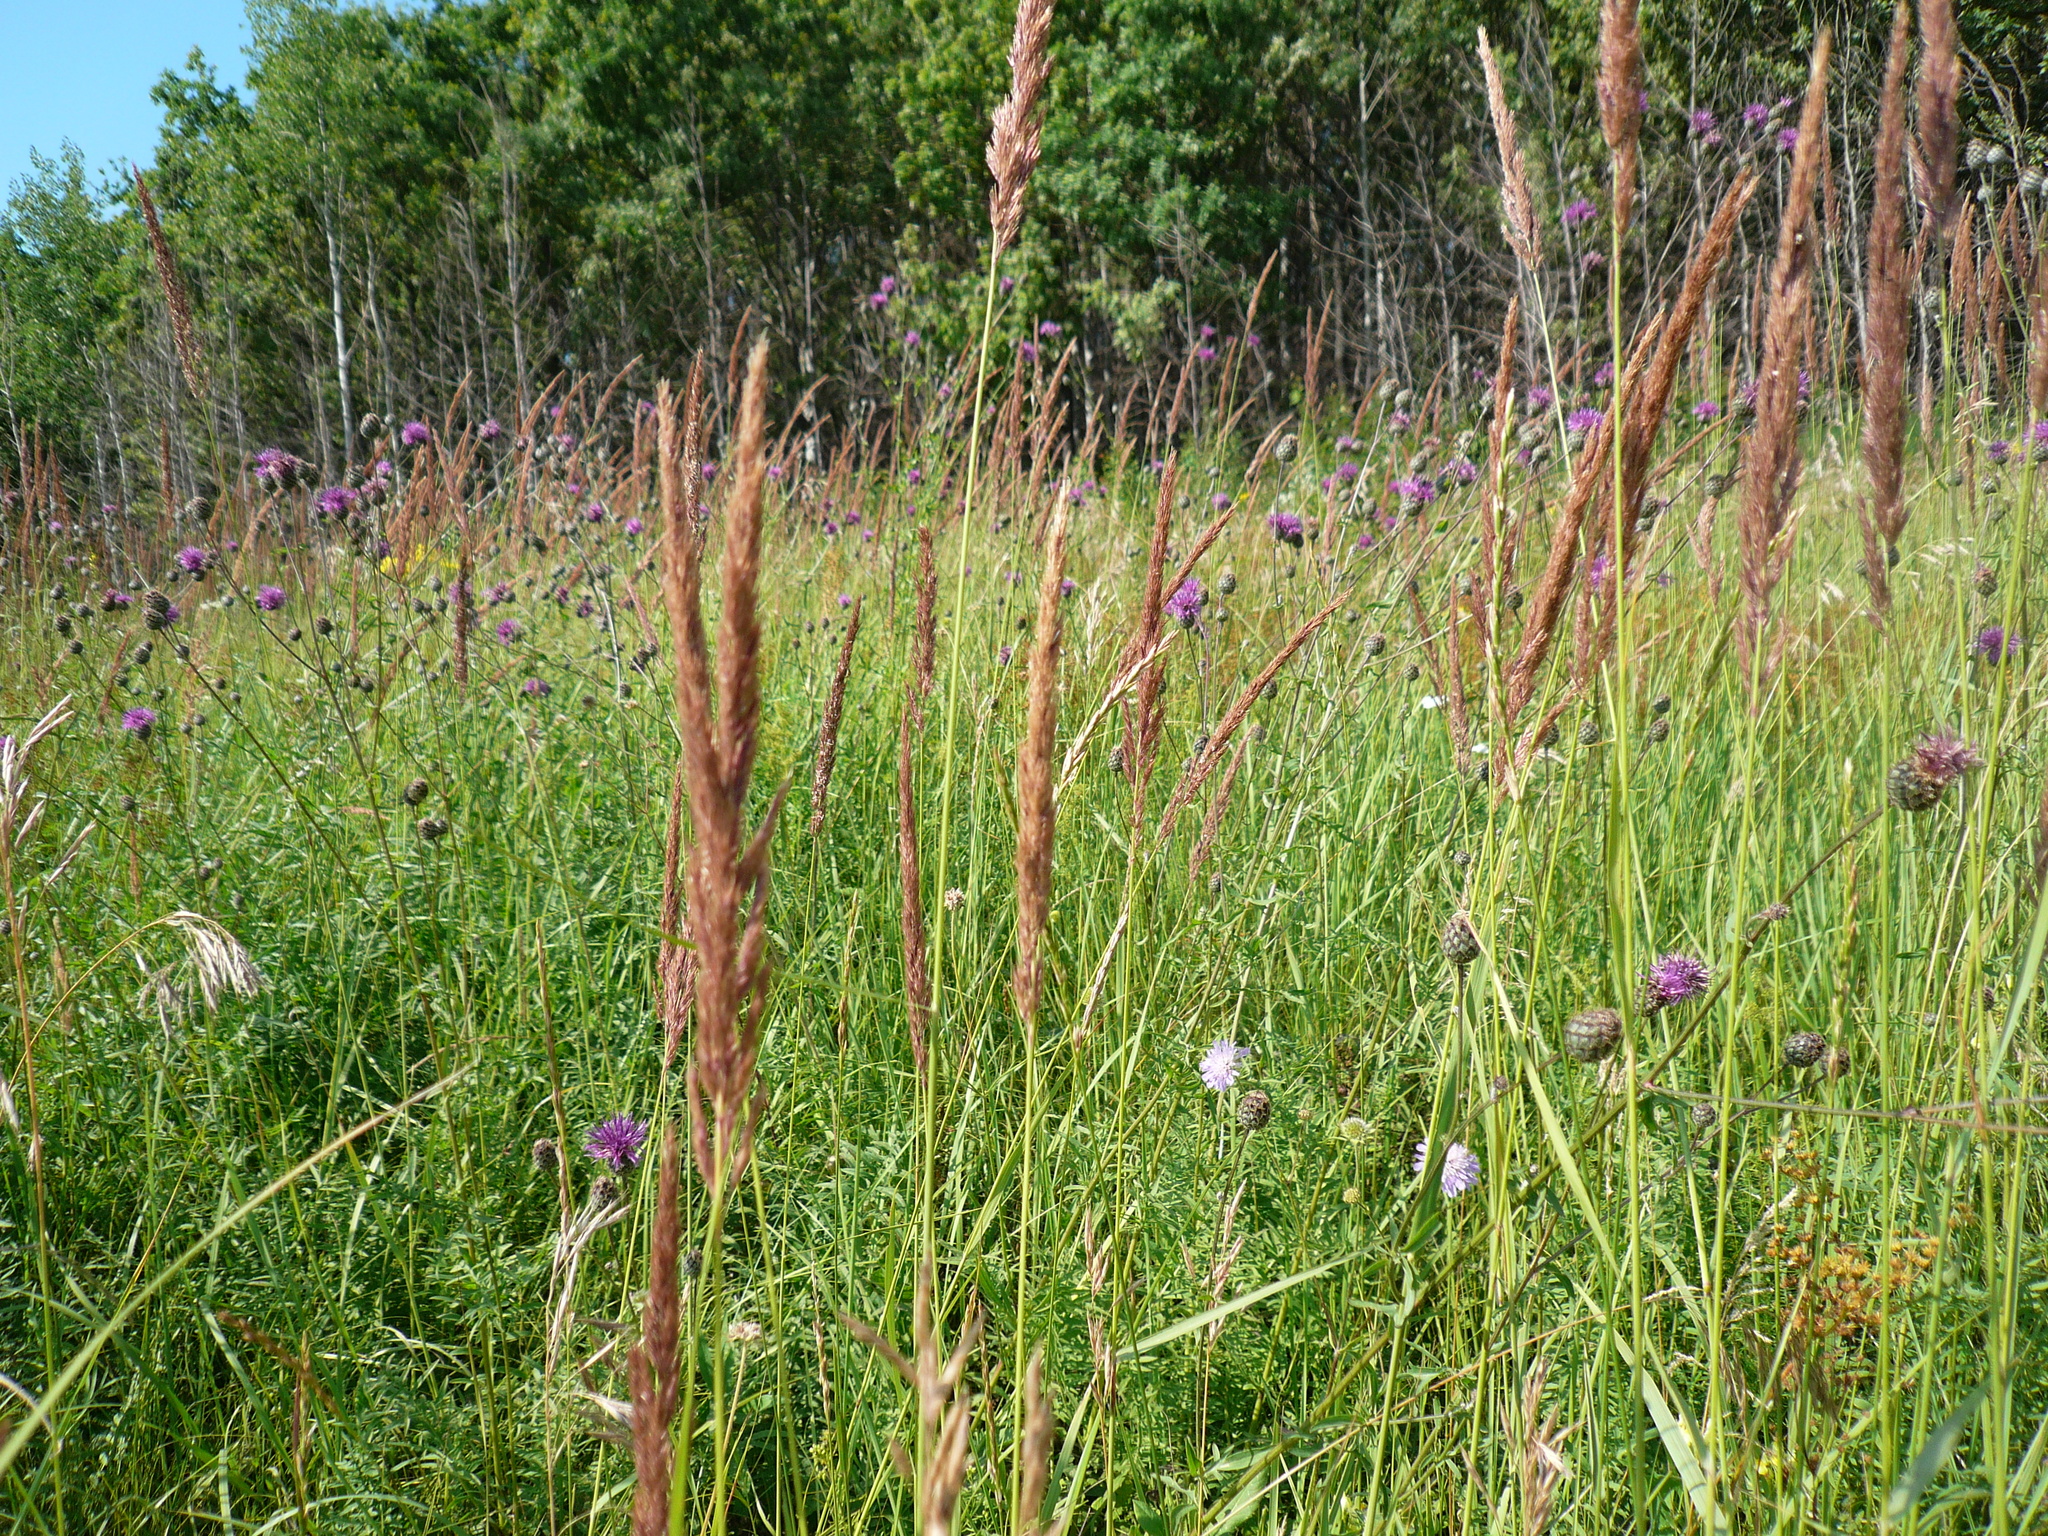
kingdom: Plantae
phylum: Tracheophyta
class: Liliopsida
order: Poales
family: Poaceae
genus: Calamagrostis
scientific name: Calamagrostis epigejos
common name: Wood small-reed
